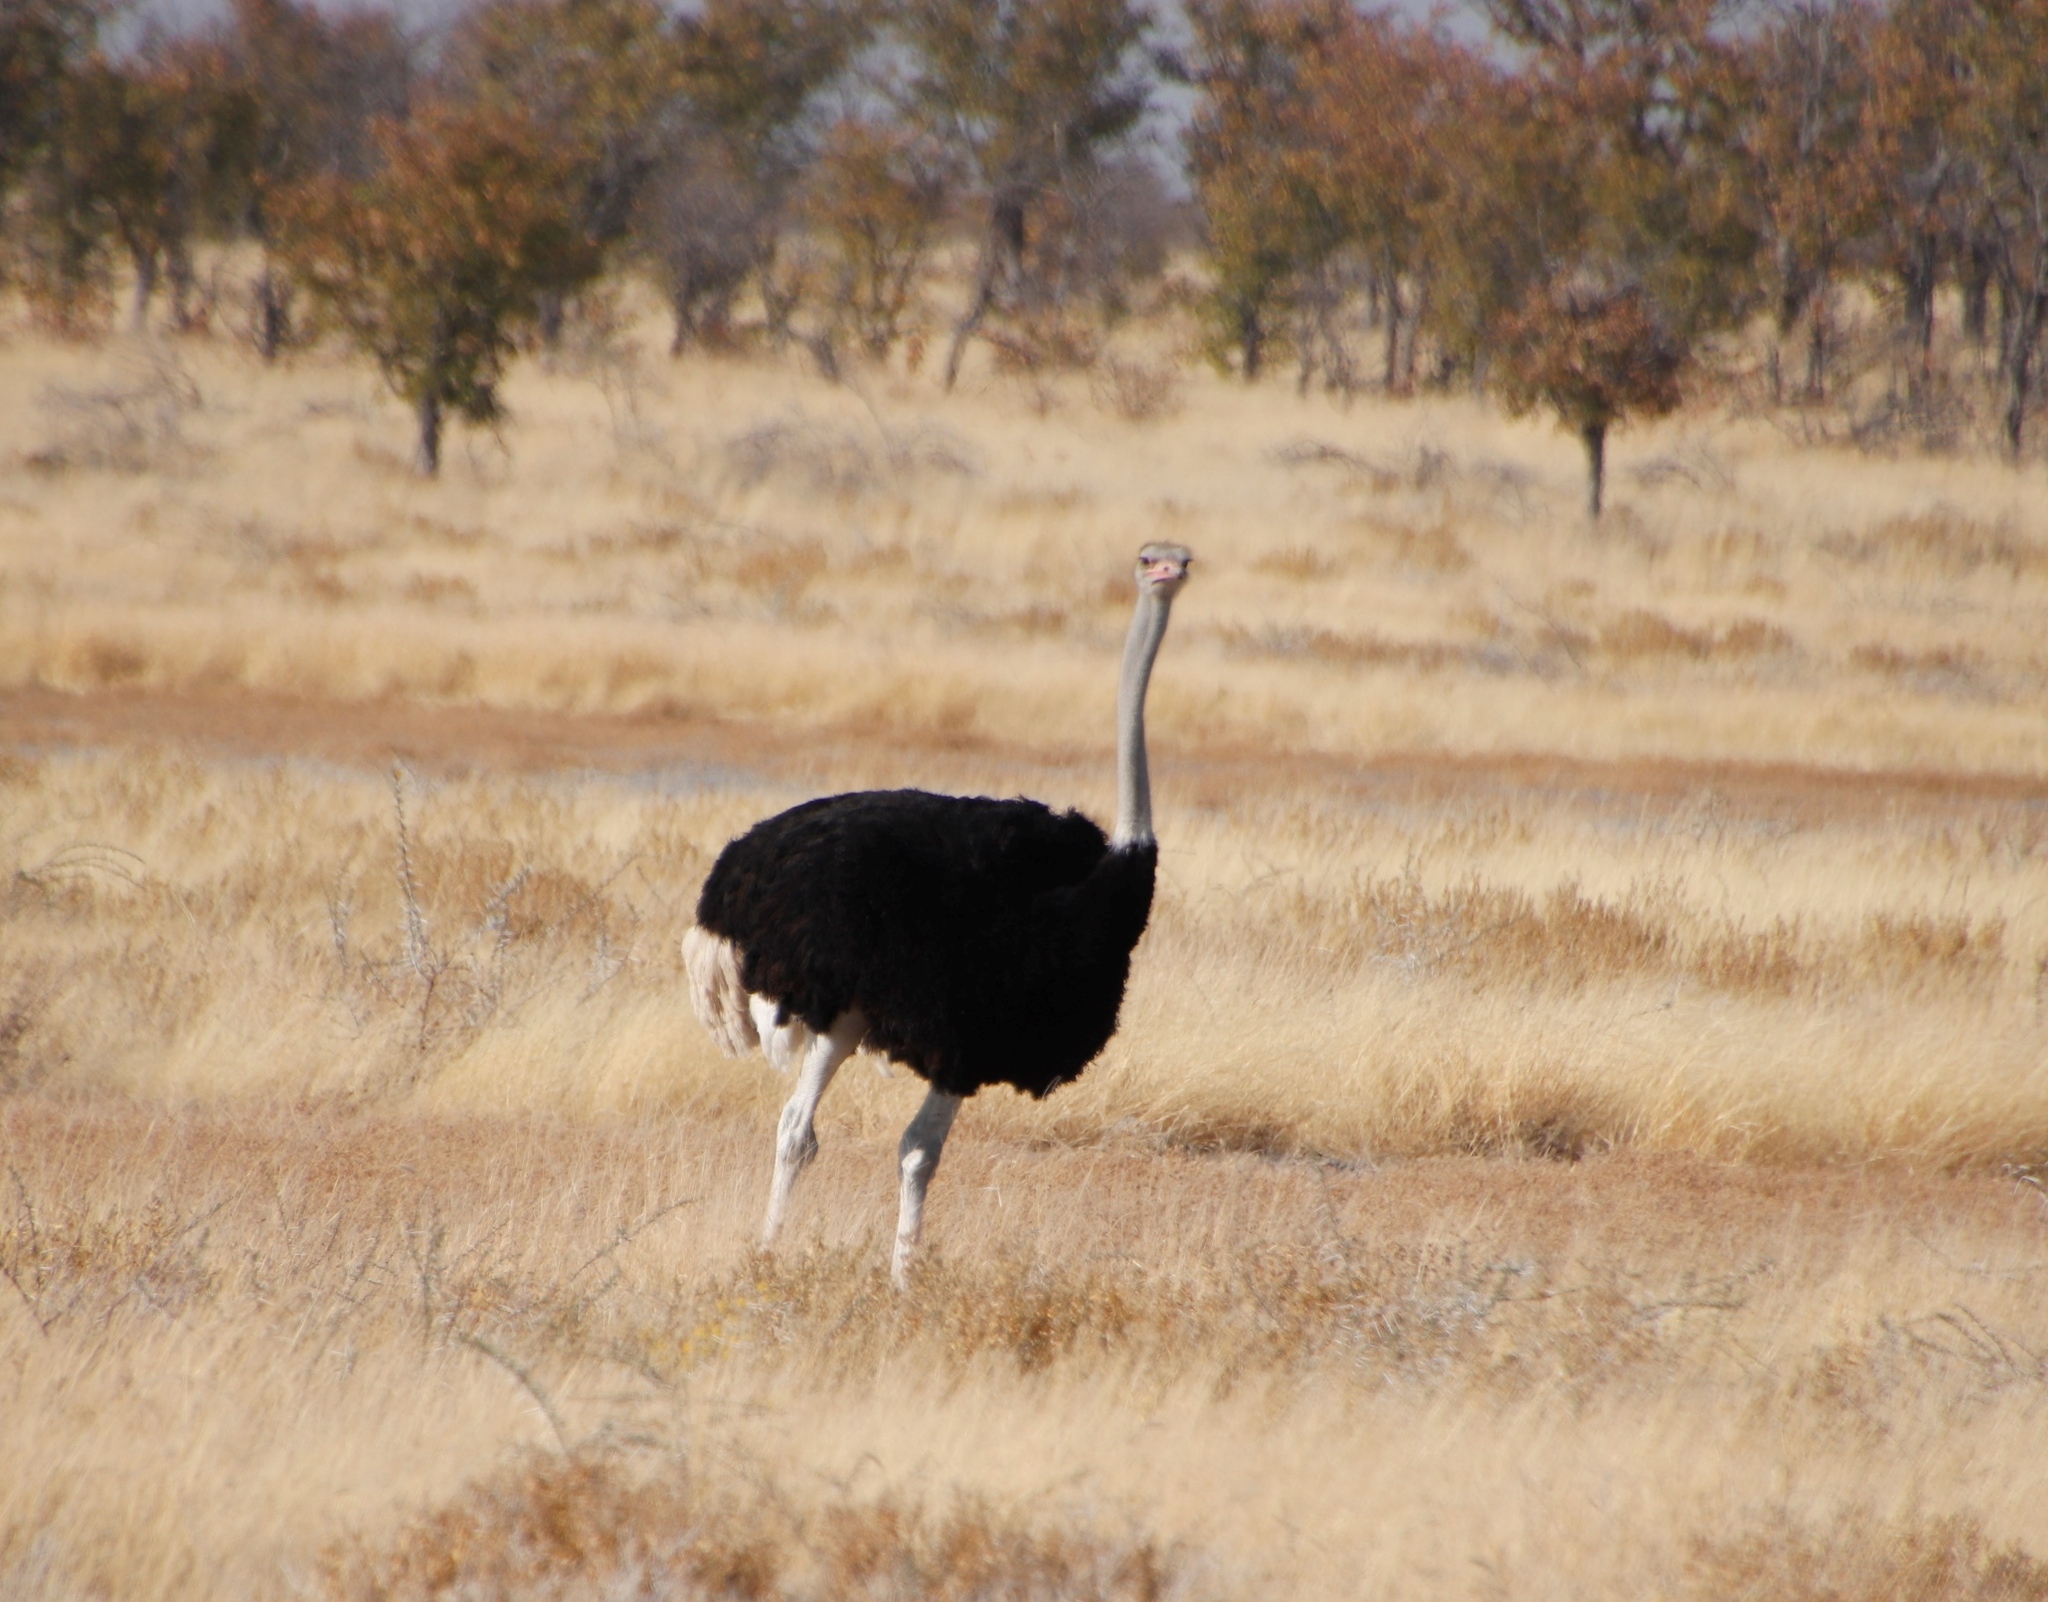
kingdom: Plantae
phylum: Tracheophyta
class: Magnoliopsida
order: Fabales
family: Fabaceae
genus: Colophospermum
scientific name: Colophospermum mopane
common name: Mopane
